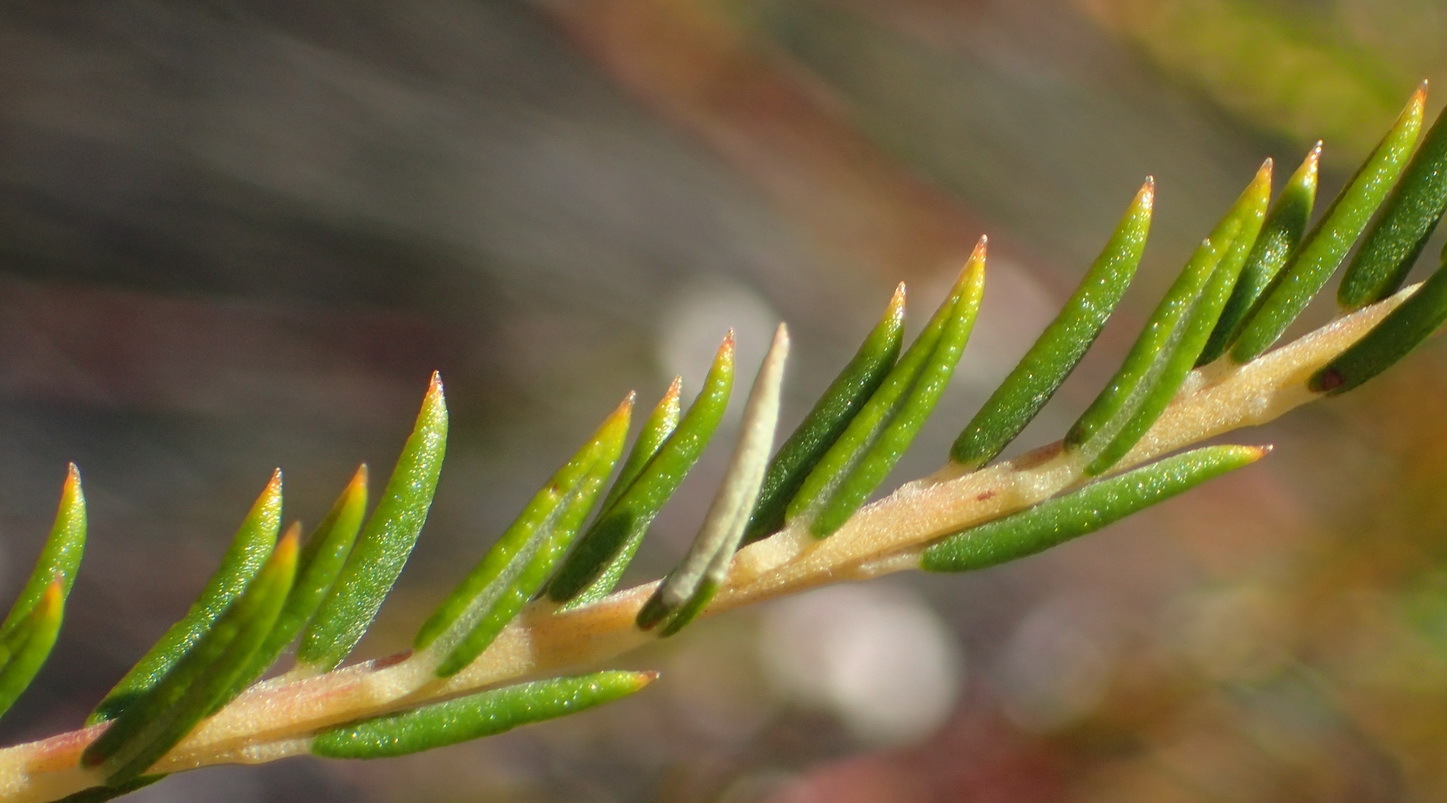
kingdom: Plantae
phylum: Tracheophyta
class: Magnoliopsida
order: Rosales
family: Rhamnaceae
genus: Phylica
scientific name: Phylica cryptandroides
